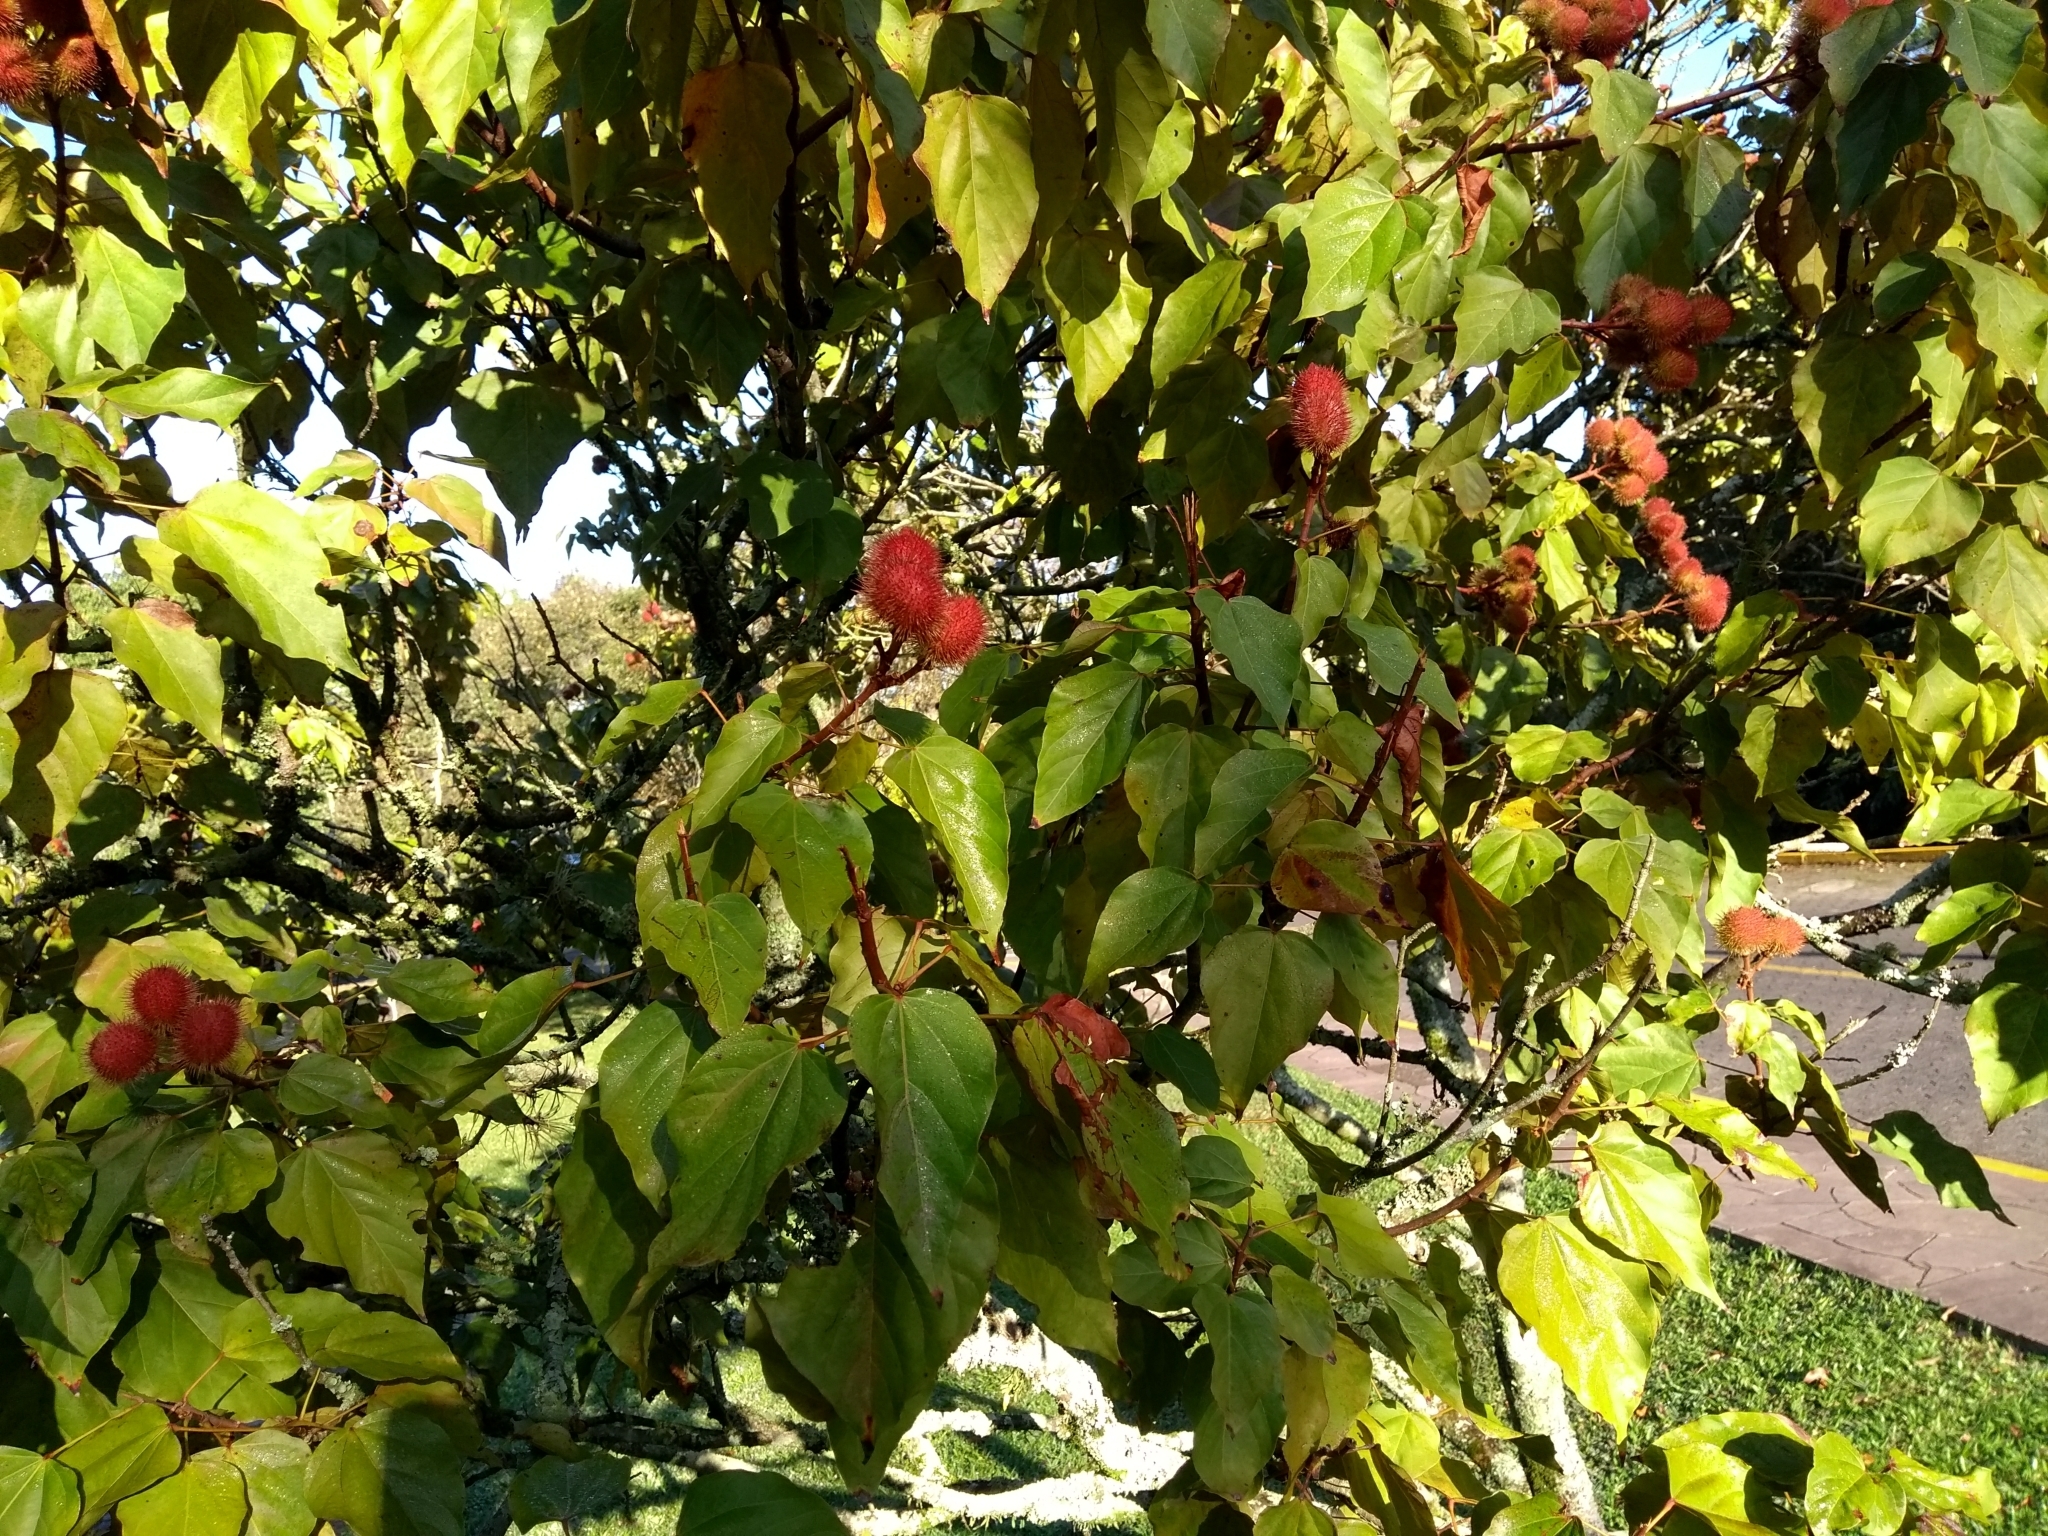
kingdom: Plantae
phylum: Tracheophyta
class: Magnoliopsida
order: Malvales
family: Bixaceae
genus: Bixa
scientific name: Bixa orellana
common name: Lipsticktree
